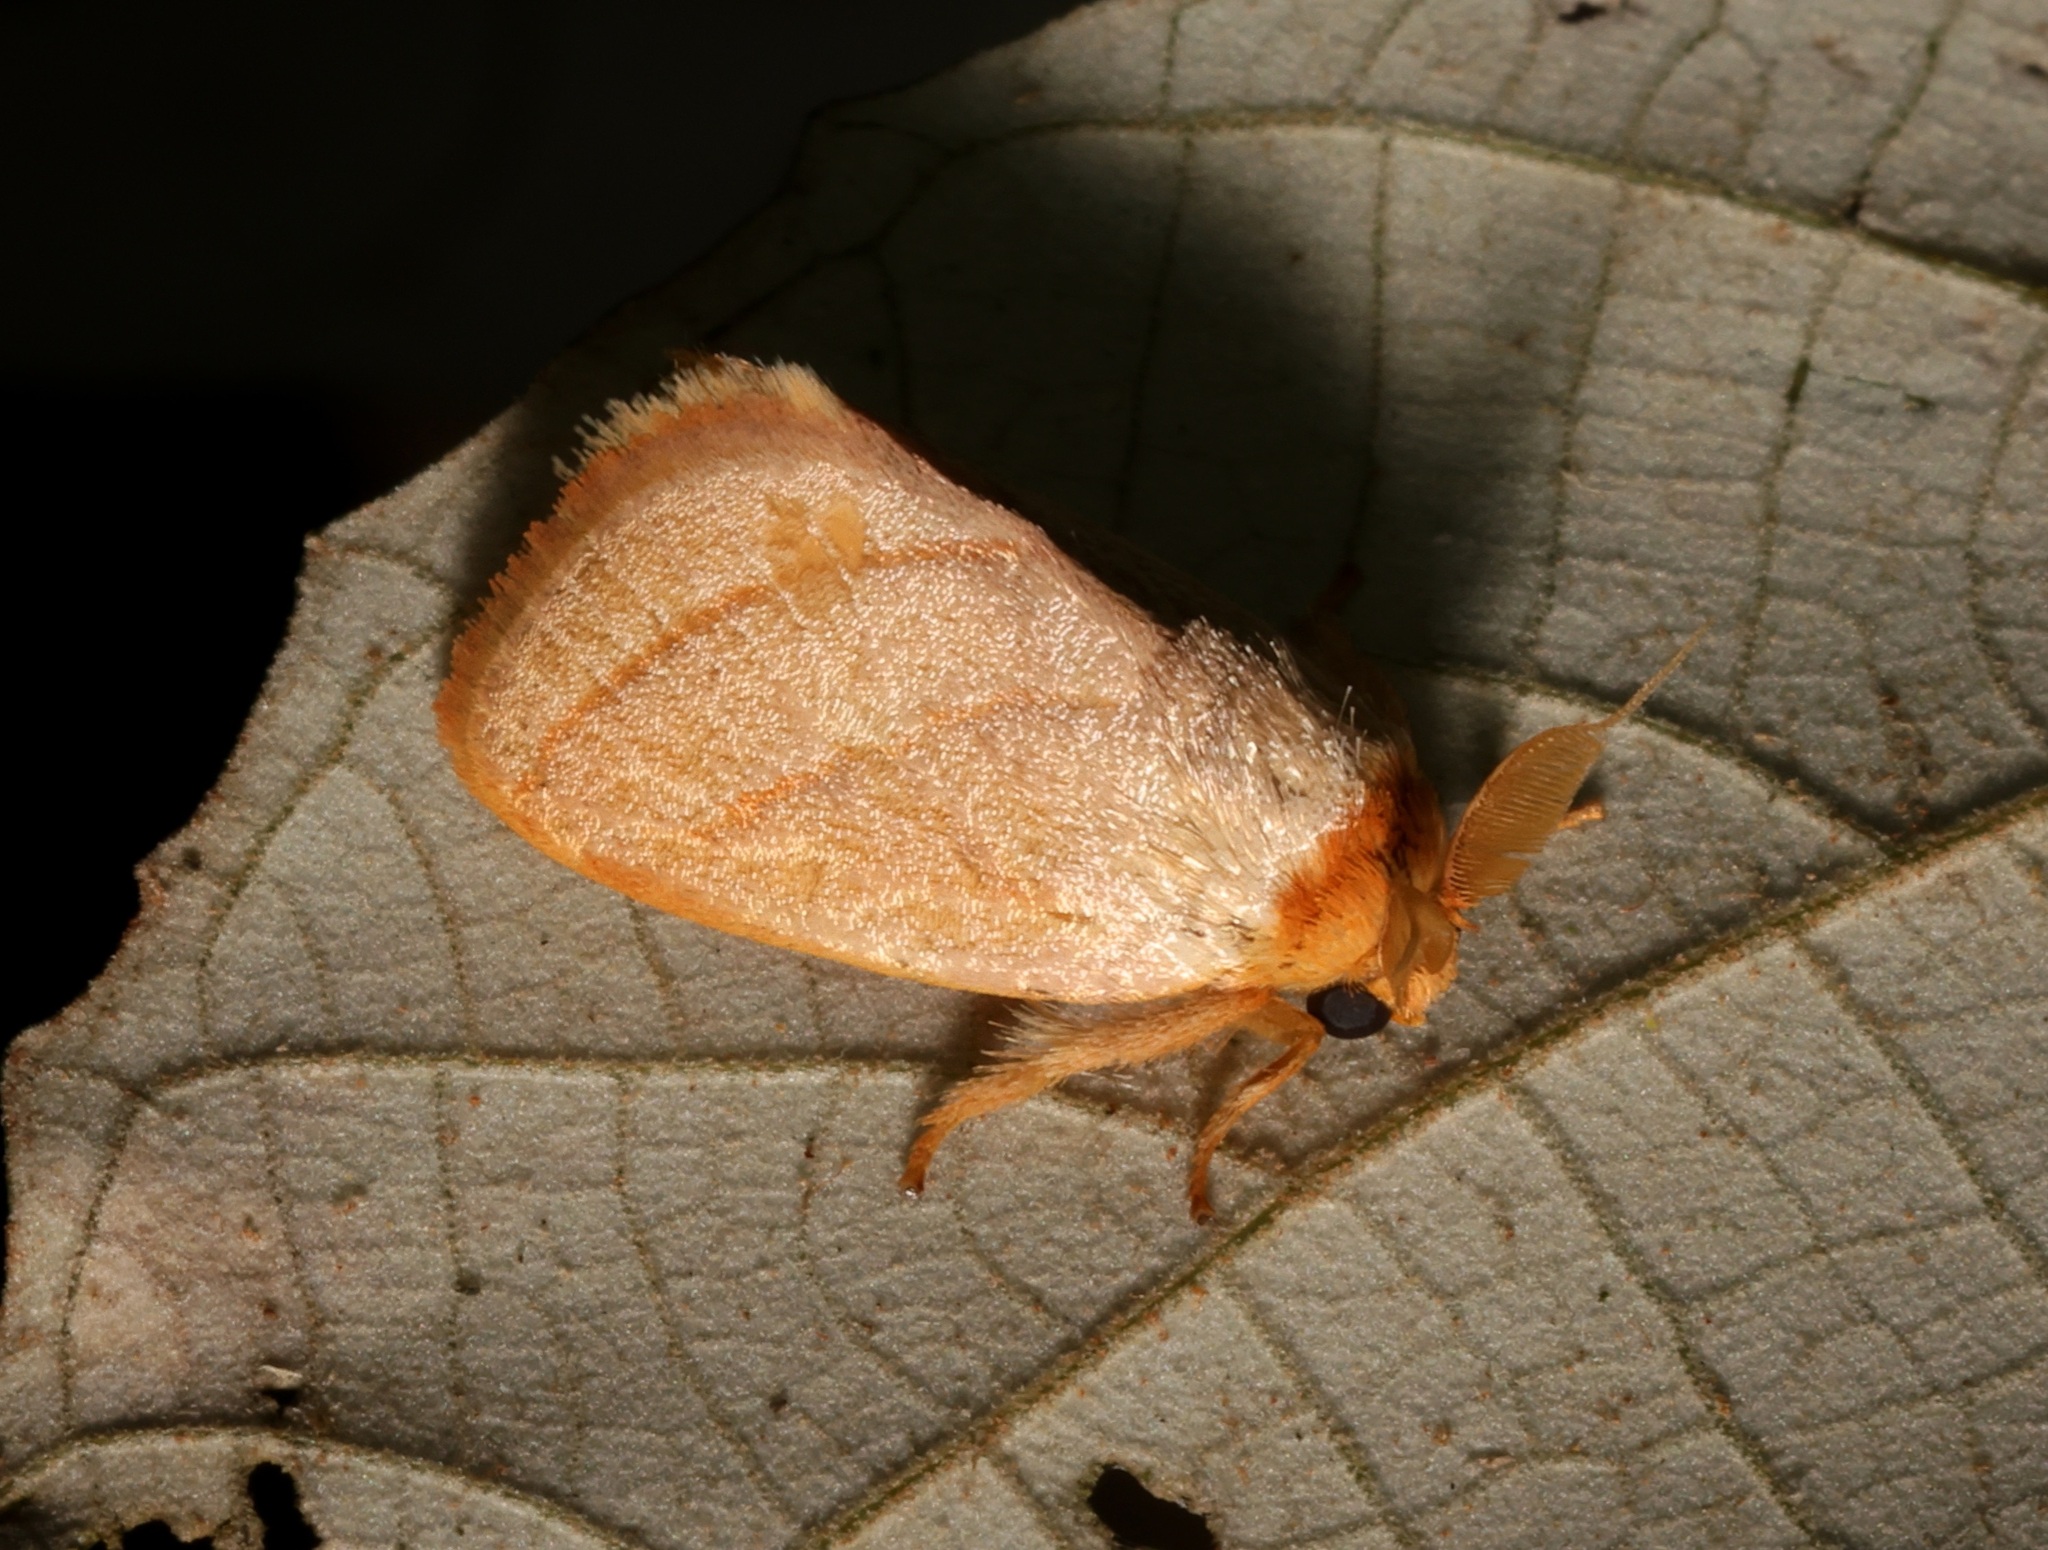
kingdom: Animalia
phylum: Arthropoda
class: Insecta
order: Lepidoptera
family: Limacodidae
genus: Cania
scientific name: Cania bilinea
